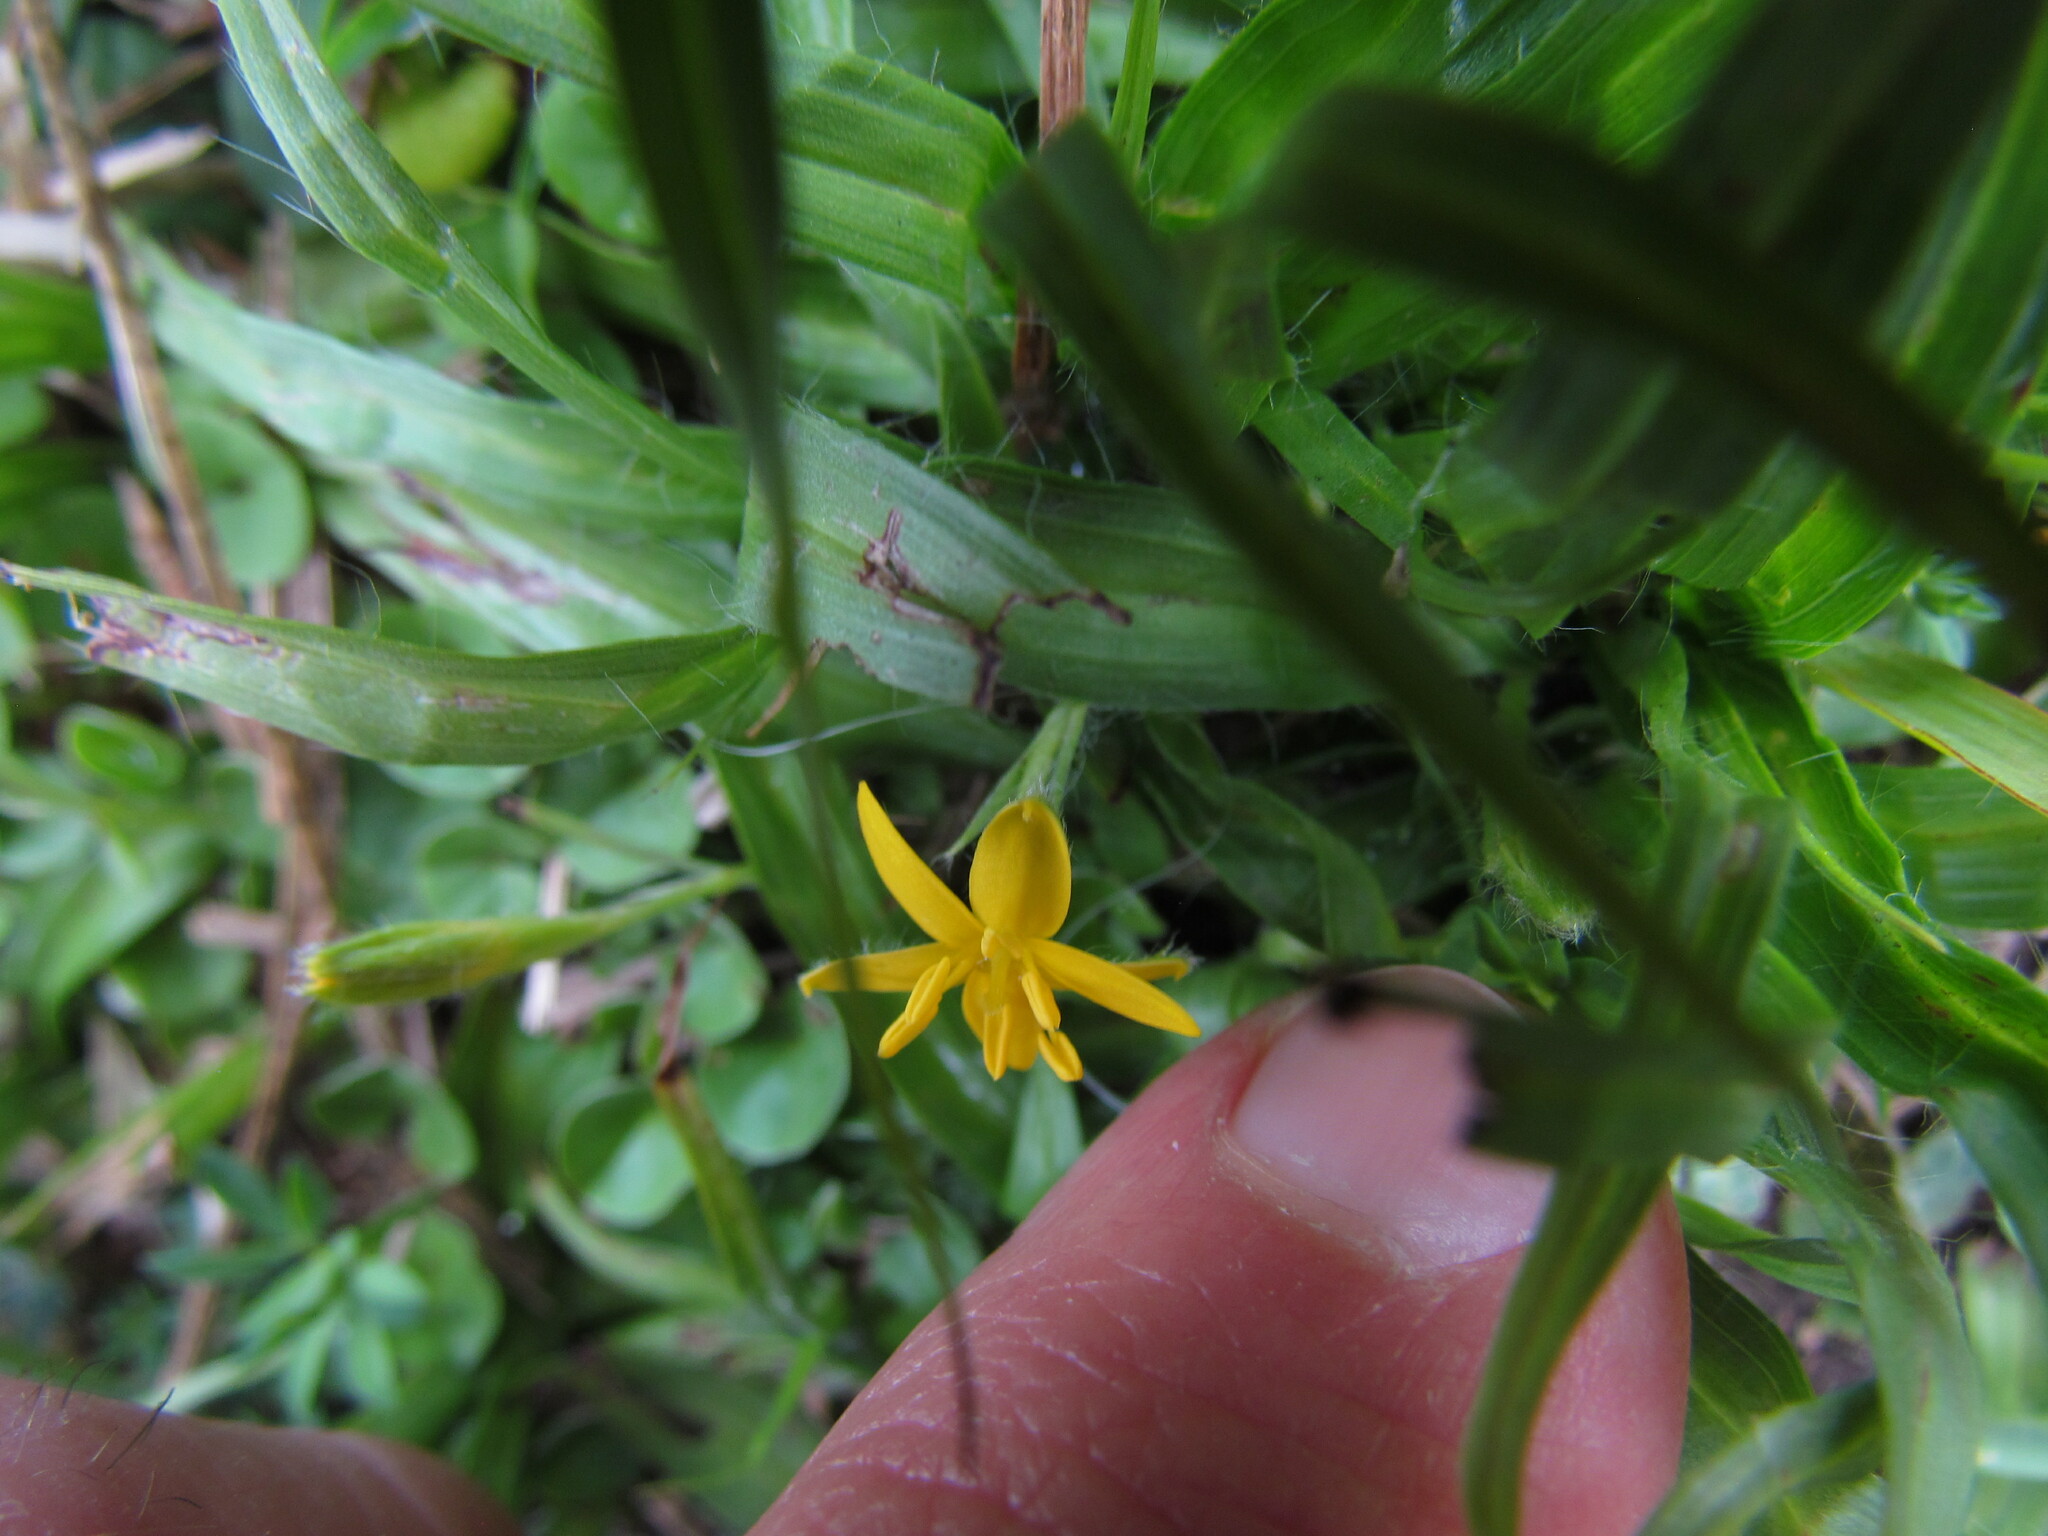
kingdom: Plantae
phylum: Tracheophyta
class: Liliopsida
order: Asparagales
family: Hypoxidaceae
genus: Hypoxis
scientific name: Hypoxis decumbens
